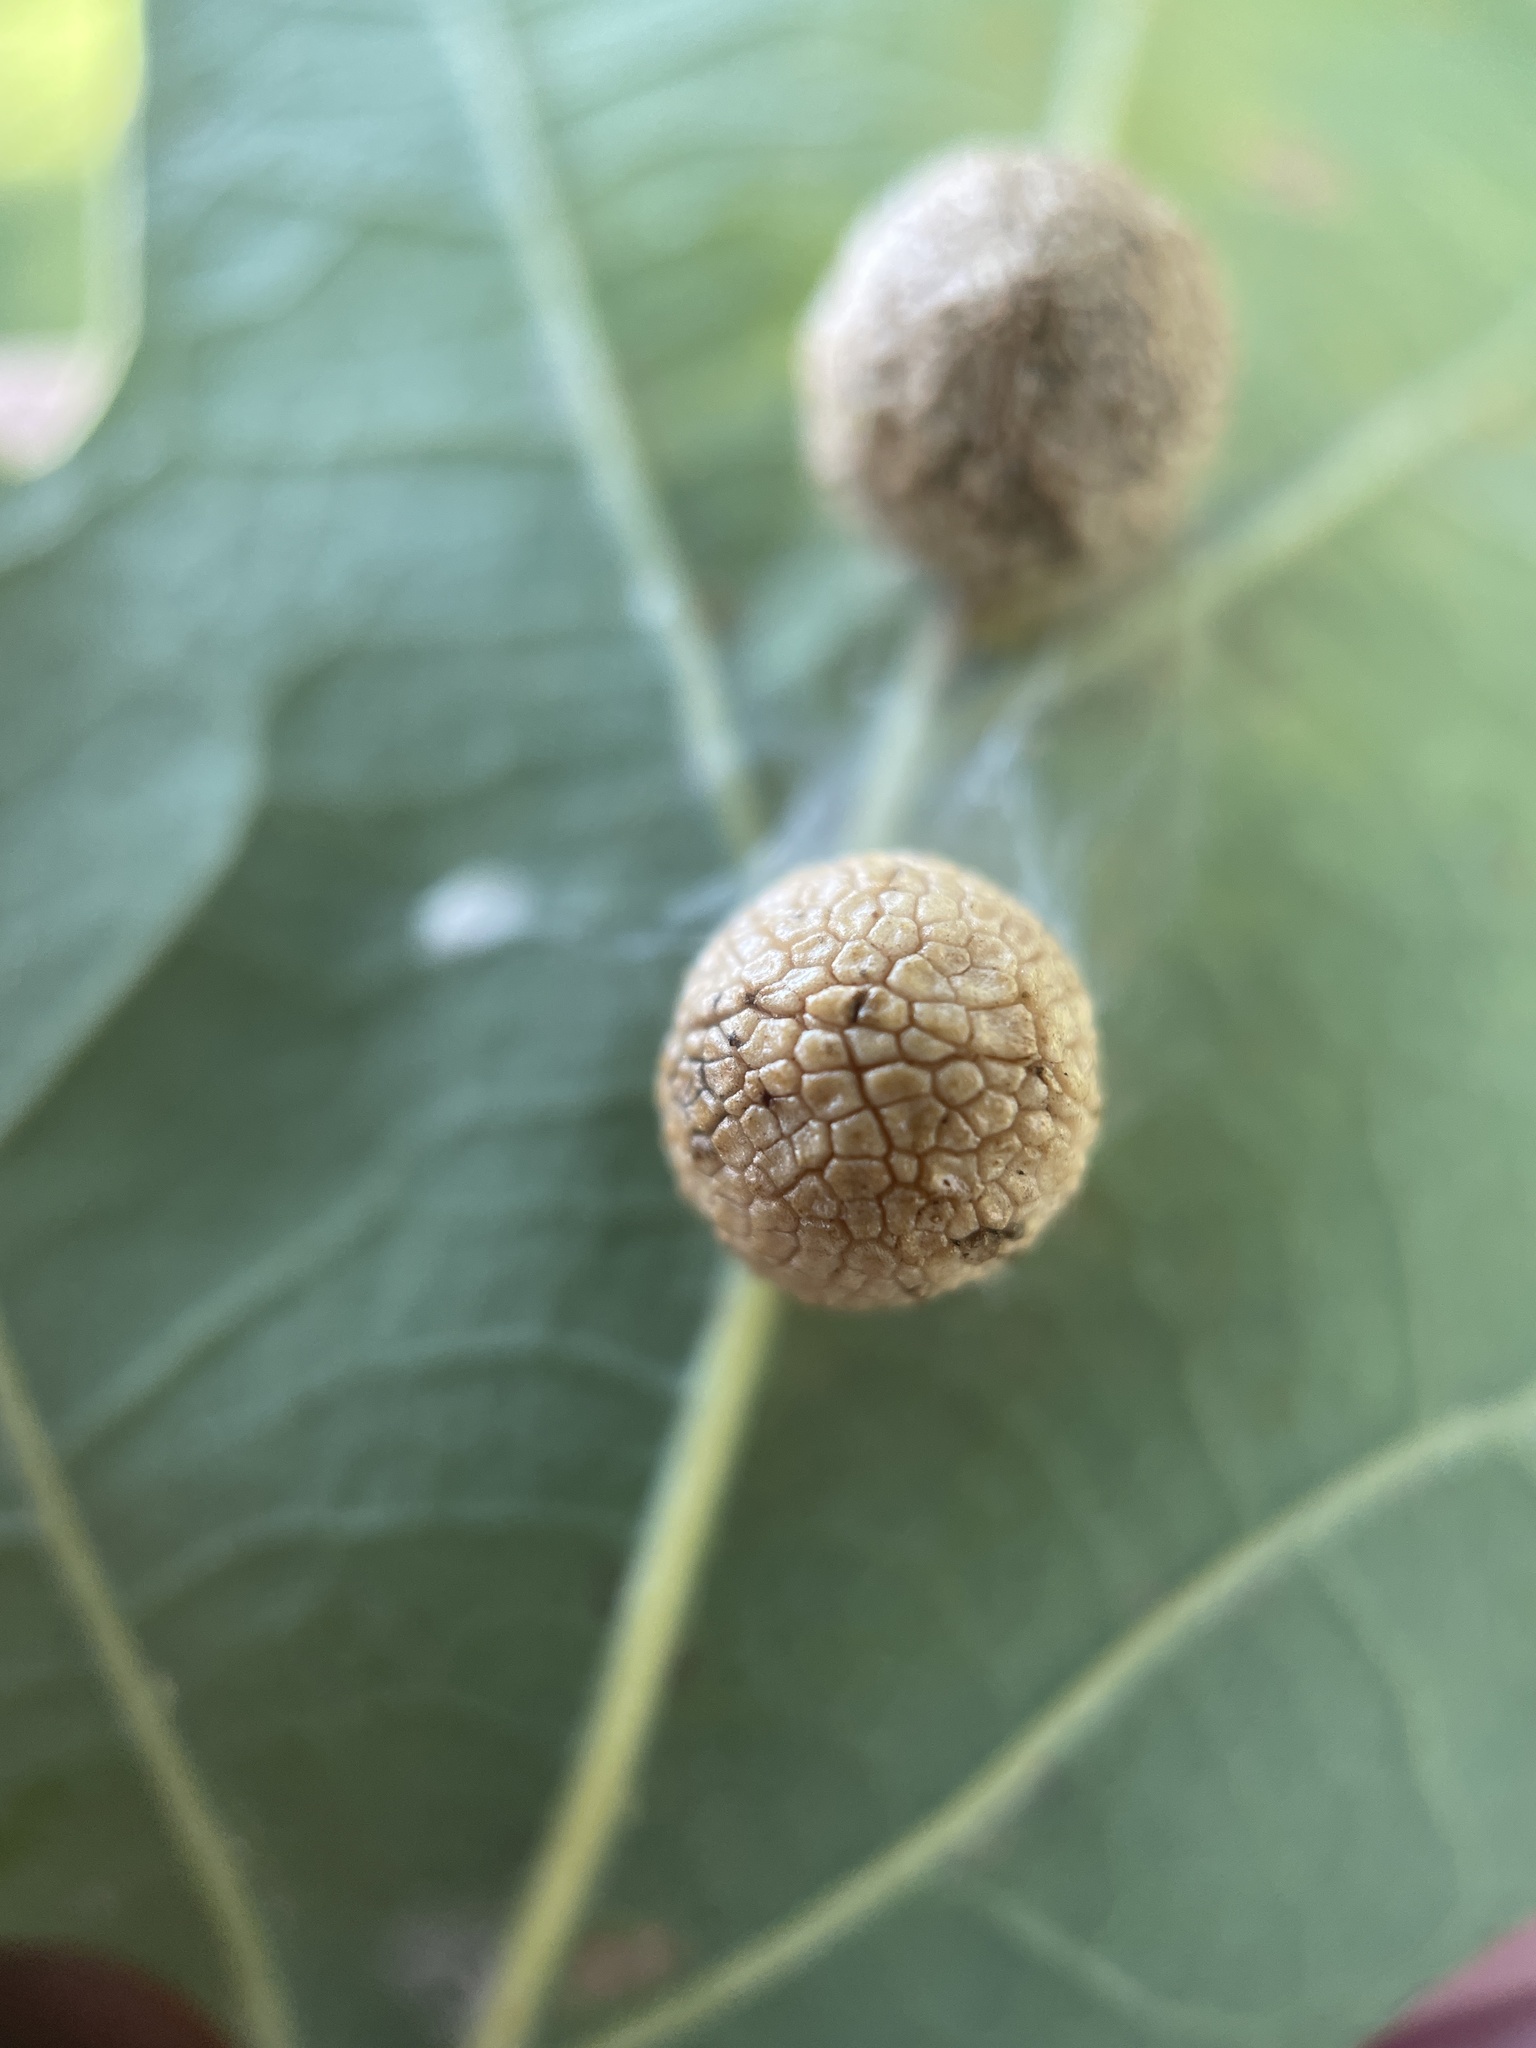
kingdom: Animalia
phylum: Arthropoda
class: Insecta
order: Hymenoptera
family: Cynipidae
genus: Acraspis
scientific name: Acraspis
